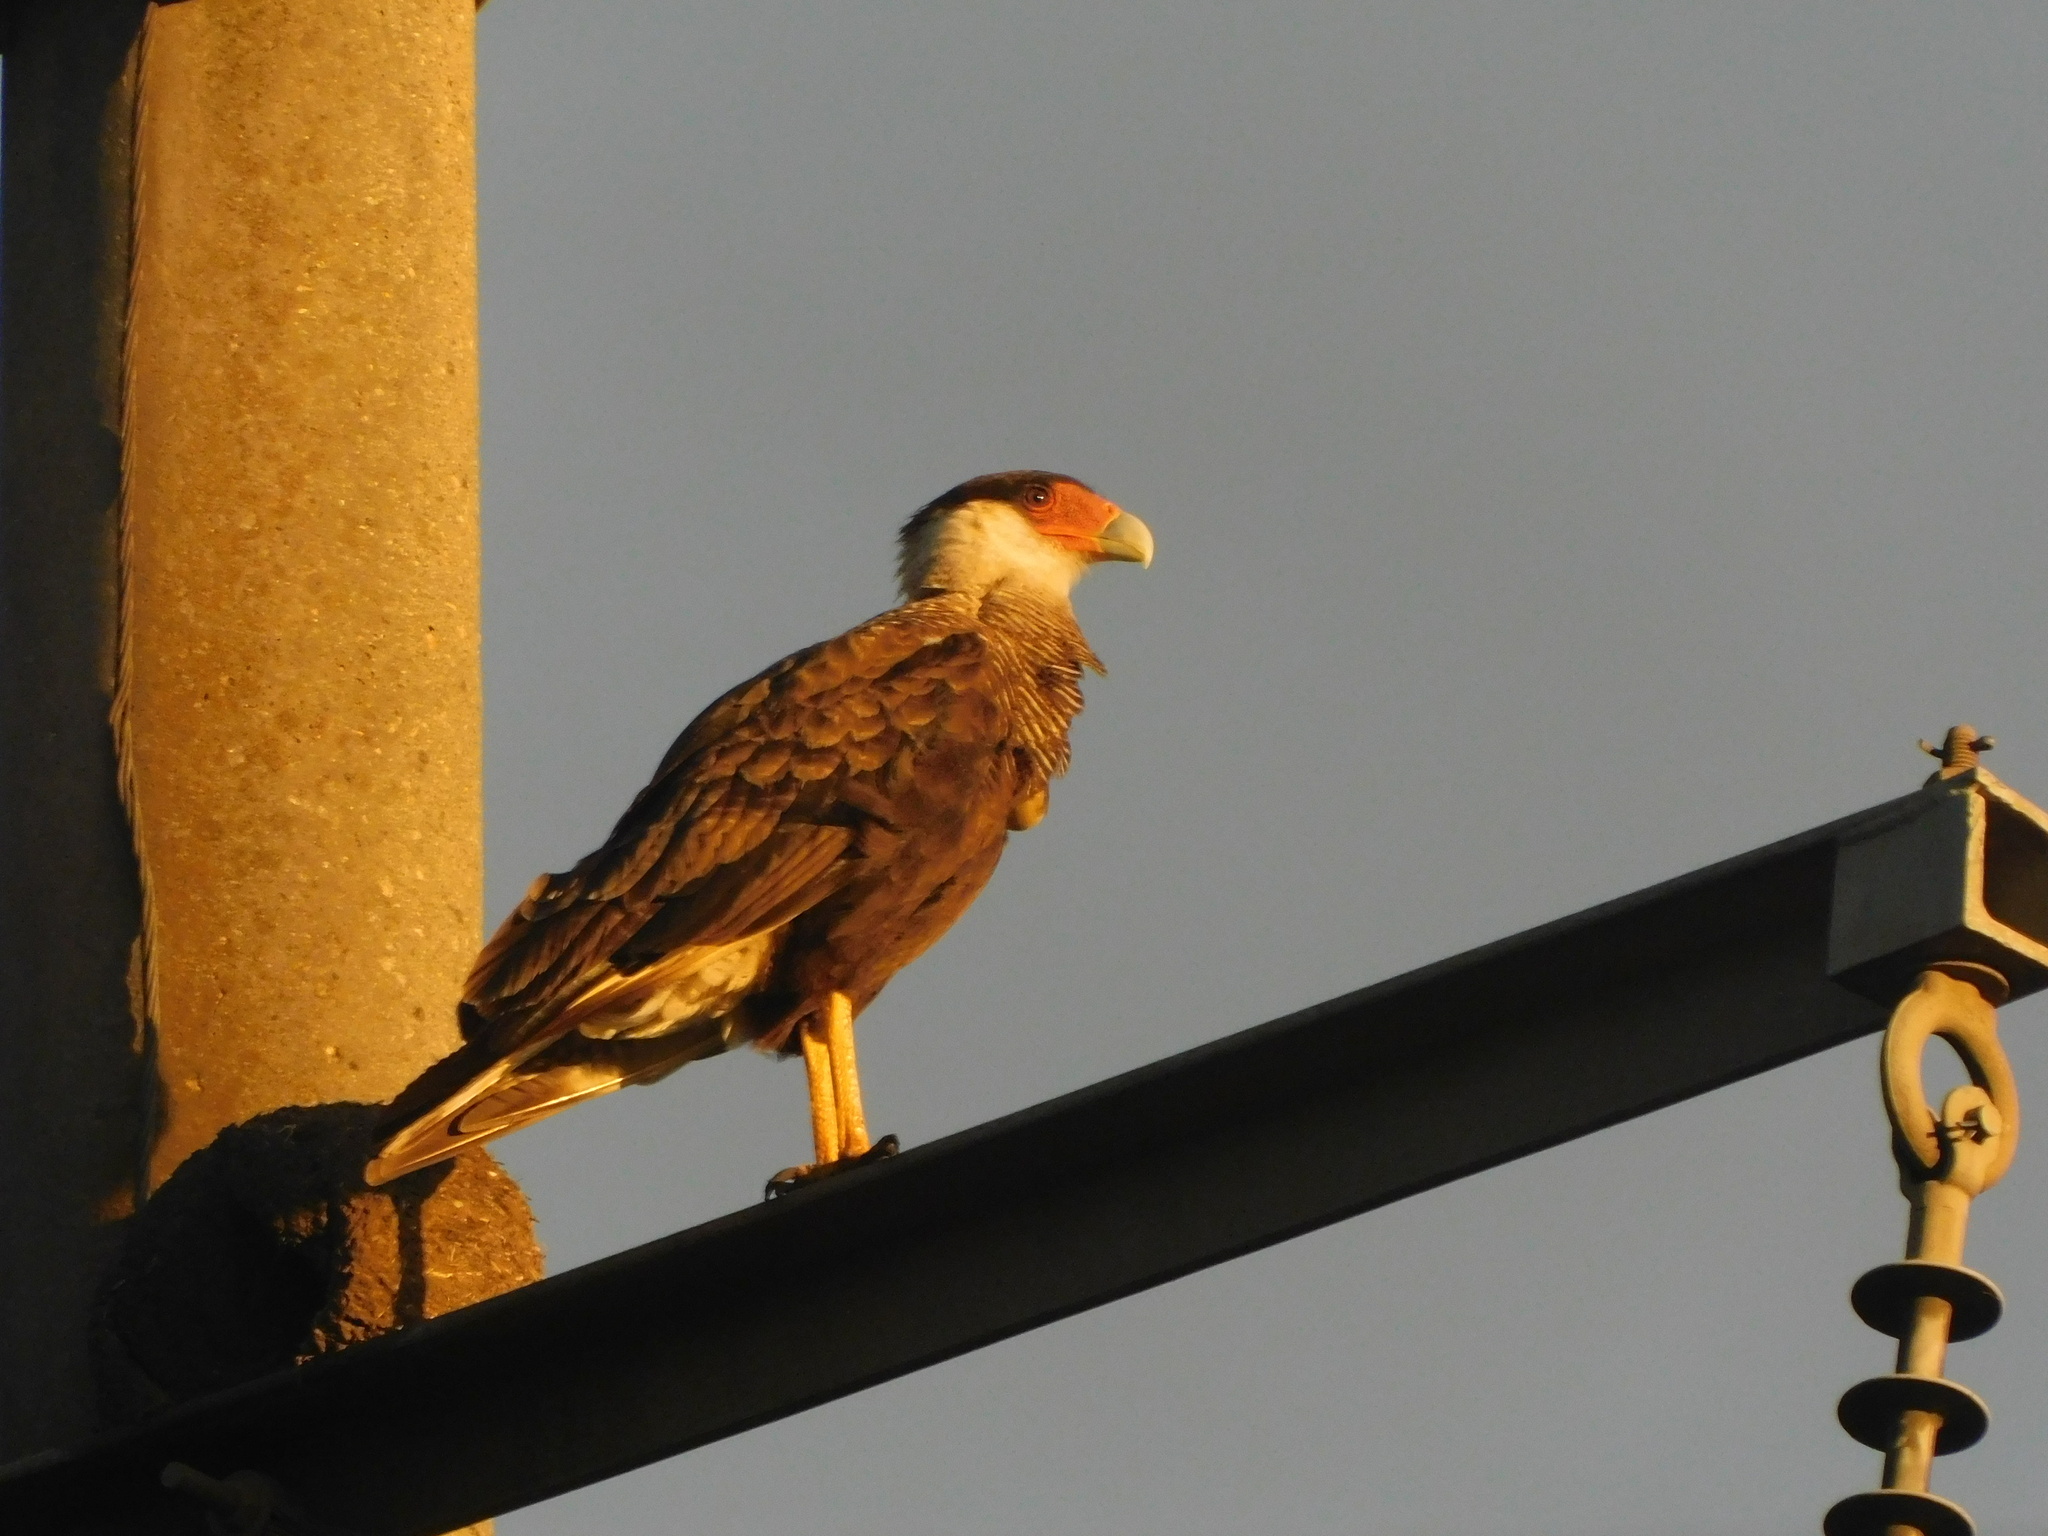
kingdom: Animalia
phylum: Chordata
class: Aves
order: Falconiformes
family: Falconidae
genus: Caracara
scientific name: Caracara plancus
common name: Southern caracara
